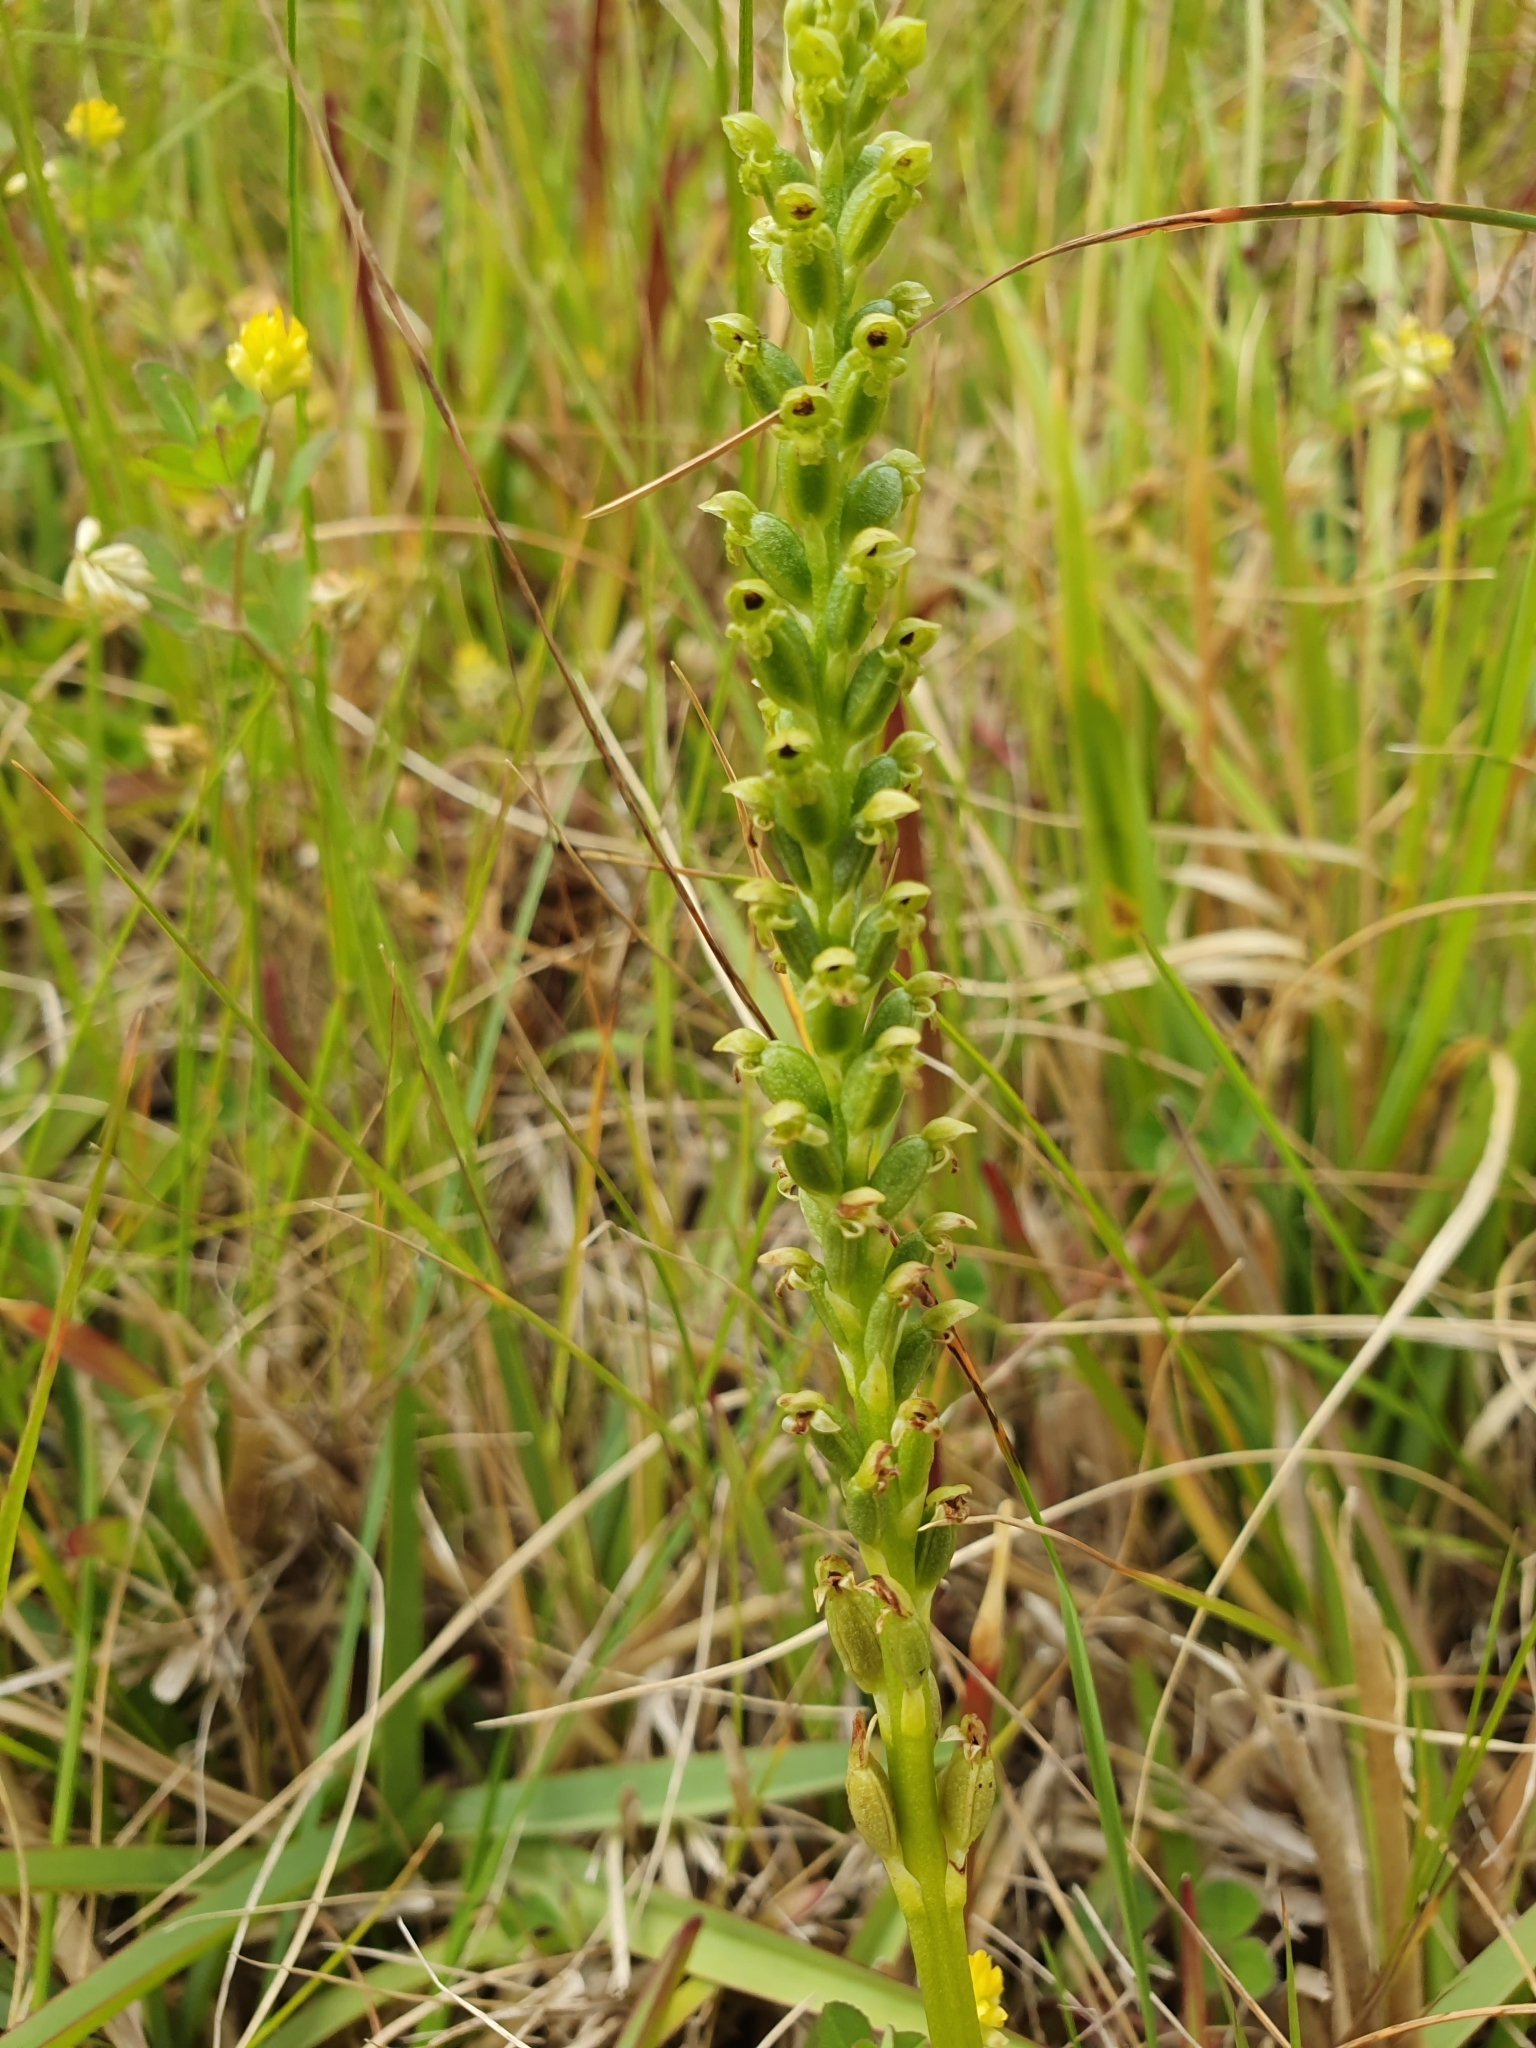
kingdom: Plantae
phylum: Tracheophyta
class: Liliopsida
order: Asparagales
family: Orchidaceae
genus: Microtis
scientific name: Microtis unifolia
